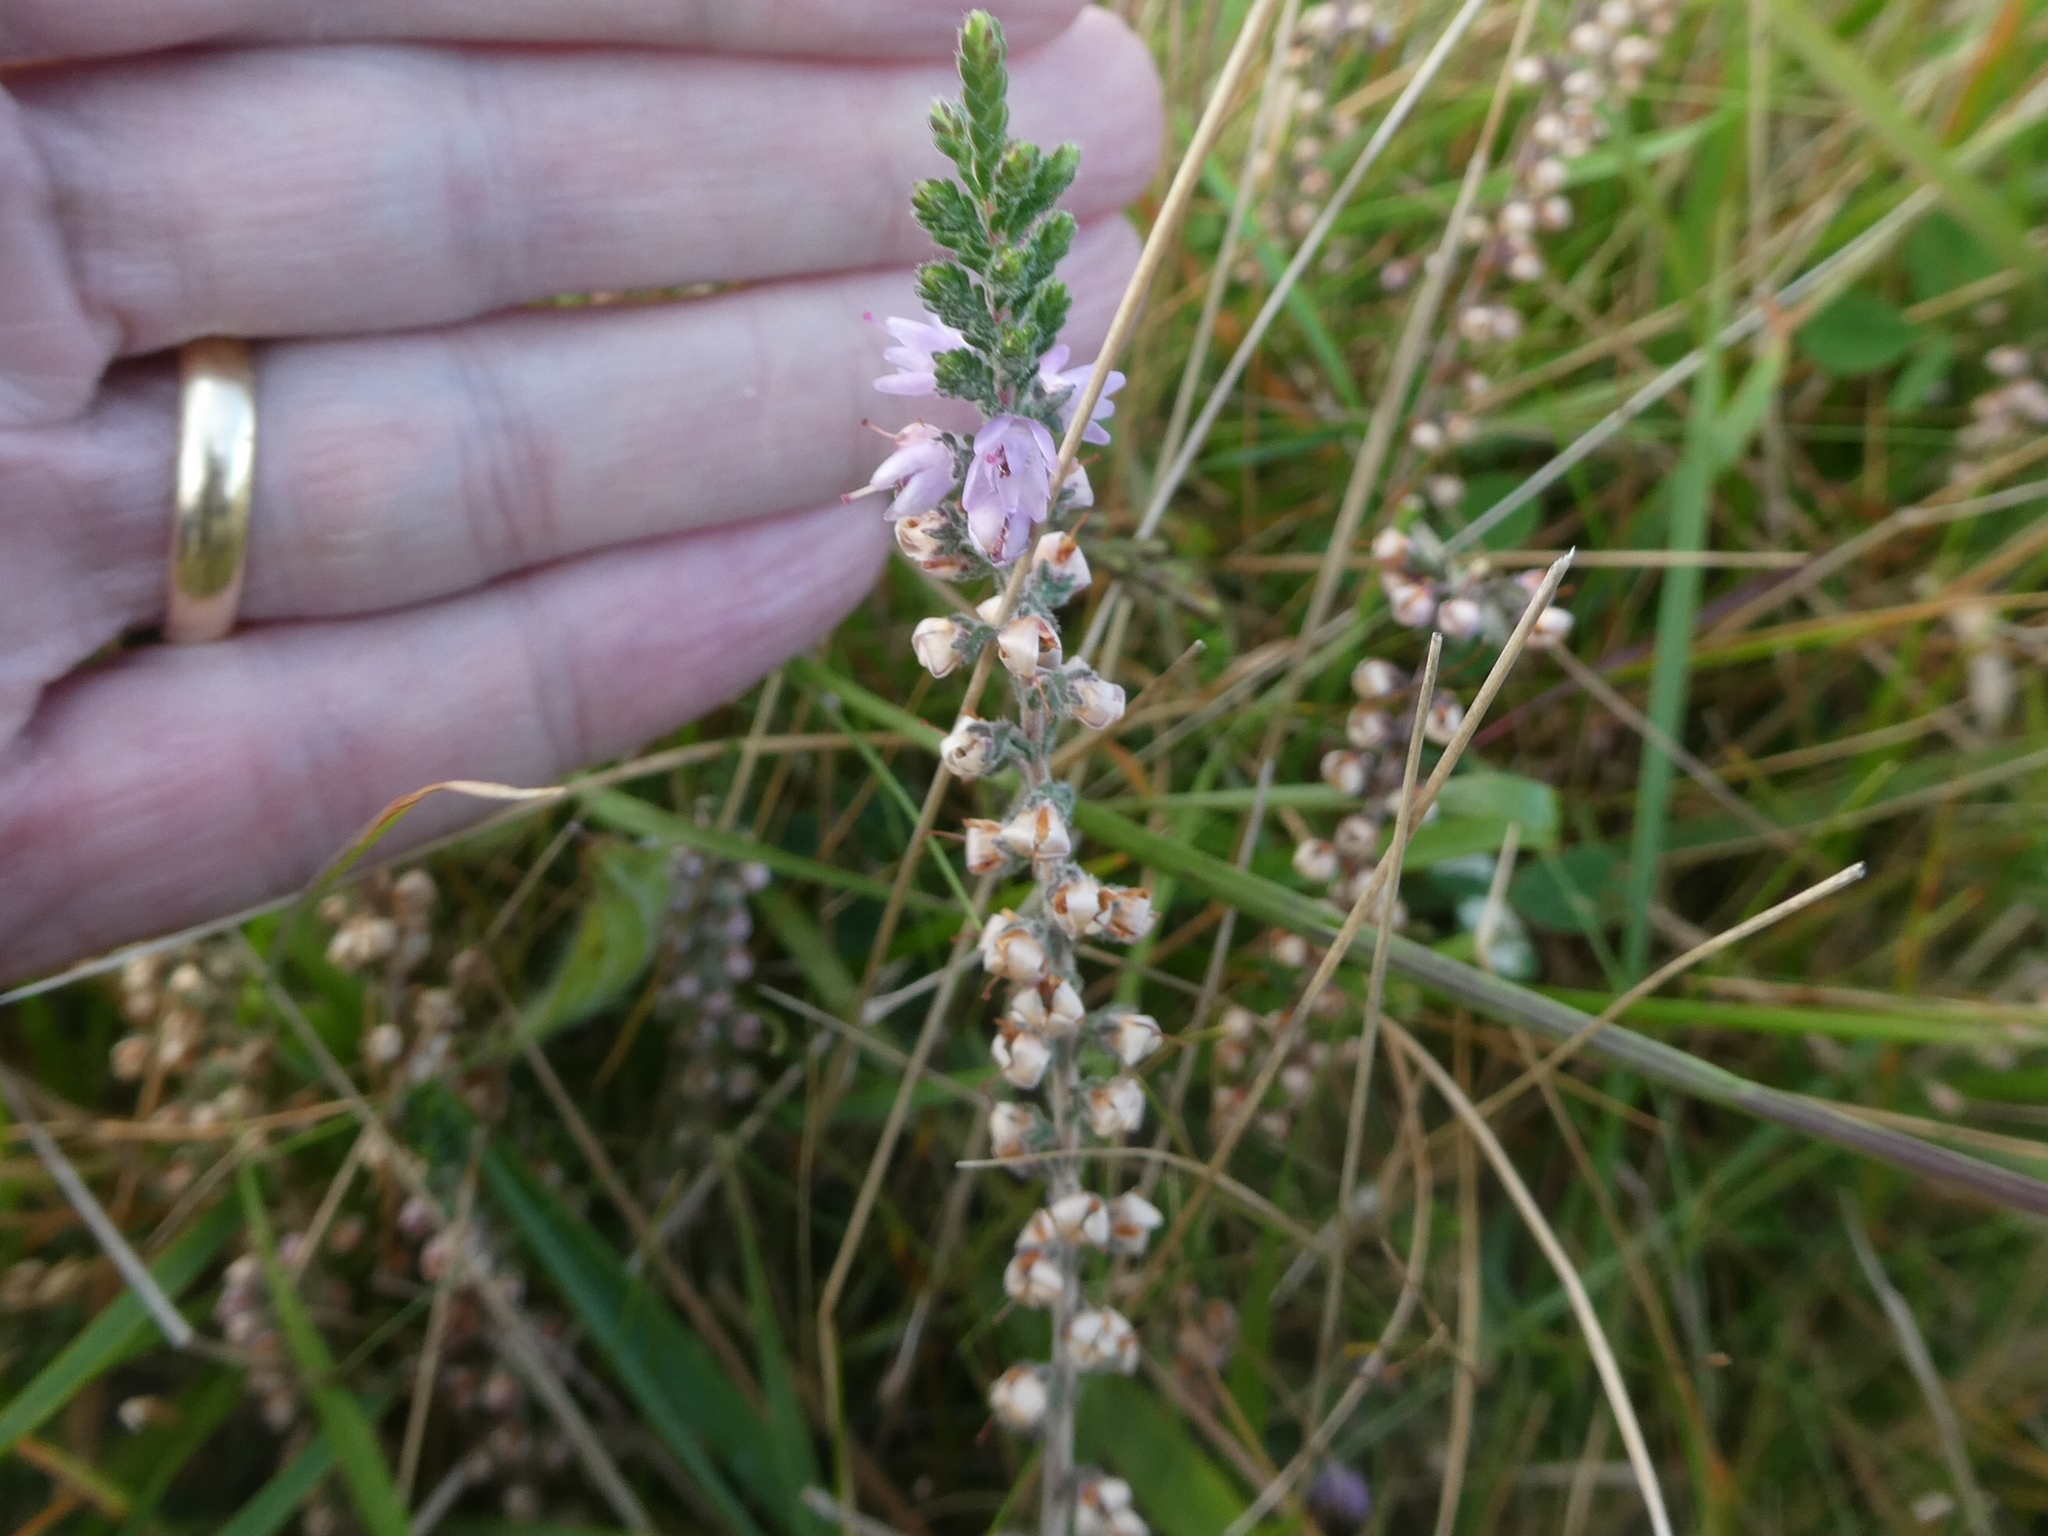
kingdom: Plantae
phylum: Tracheophyta
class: Magnoliopsida
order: Ericales
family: Ericaceae
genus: Calluna
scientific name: Calluna vulgaris
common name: Heather
